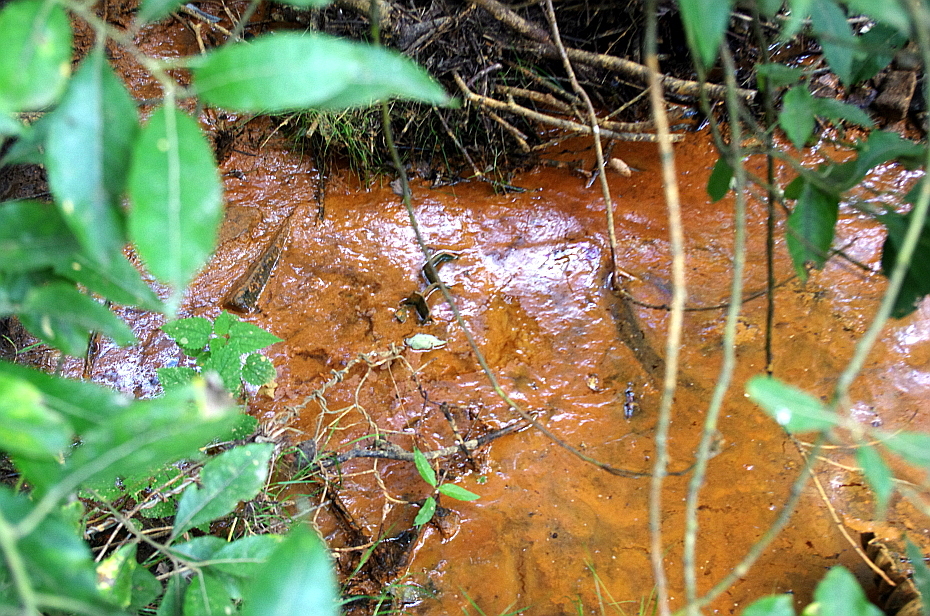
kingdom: Bacteria
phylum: Proteobacteria
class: Gammaproteobacteria
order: Burkholderiales
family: Burkholderiaceae
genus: Leptothrix
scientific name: Leptothrix
